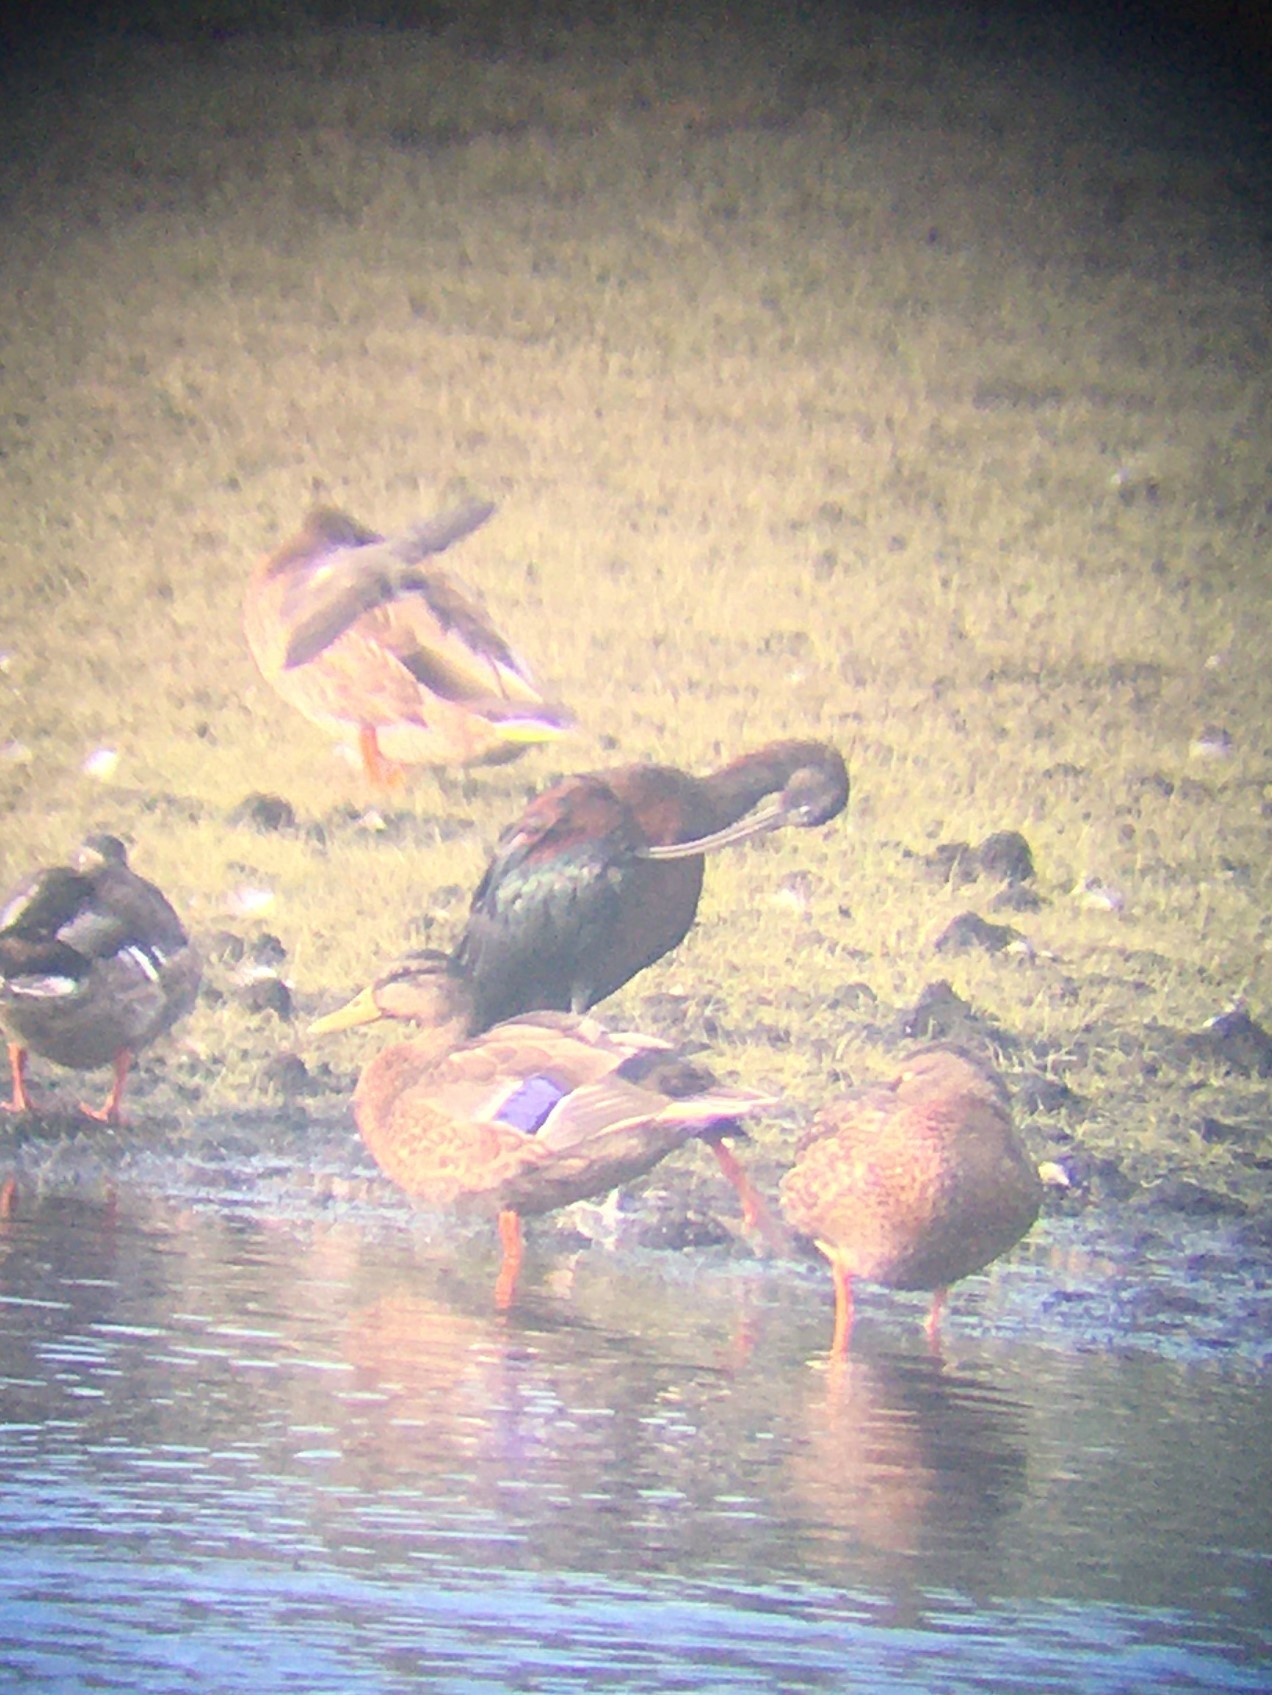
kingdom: Animalia
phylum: Chordata
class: Aves
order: Pelecaniformes
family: Threskiornithidae
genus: Plegadis
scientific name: Plegadis falcinellus
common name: Glossy ibis
